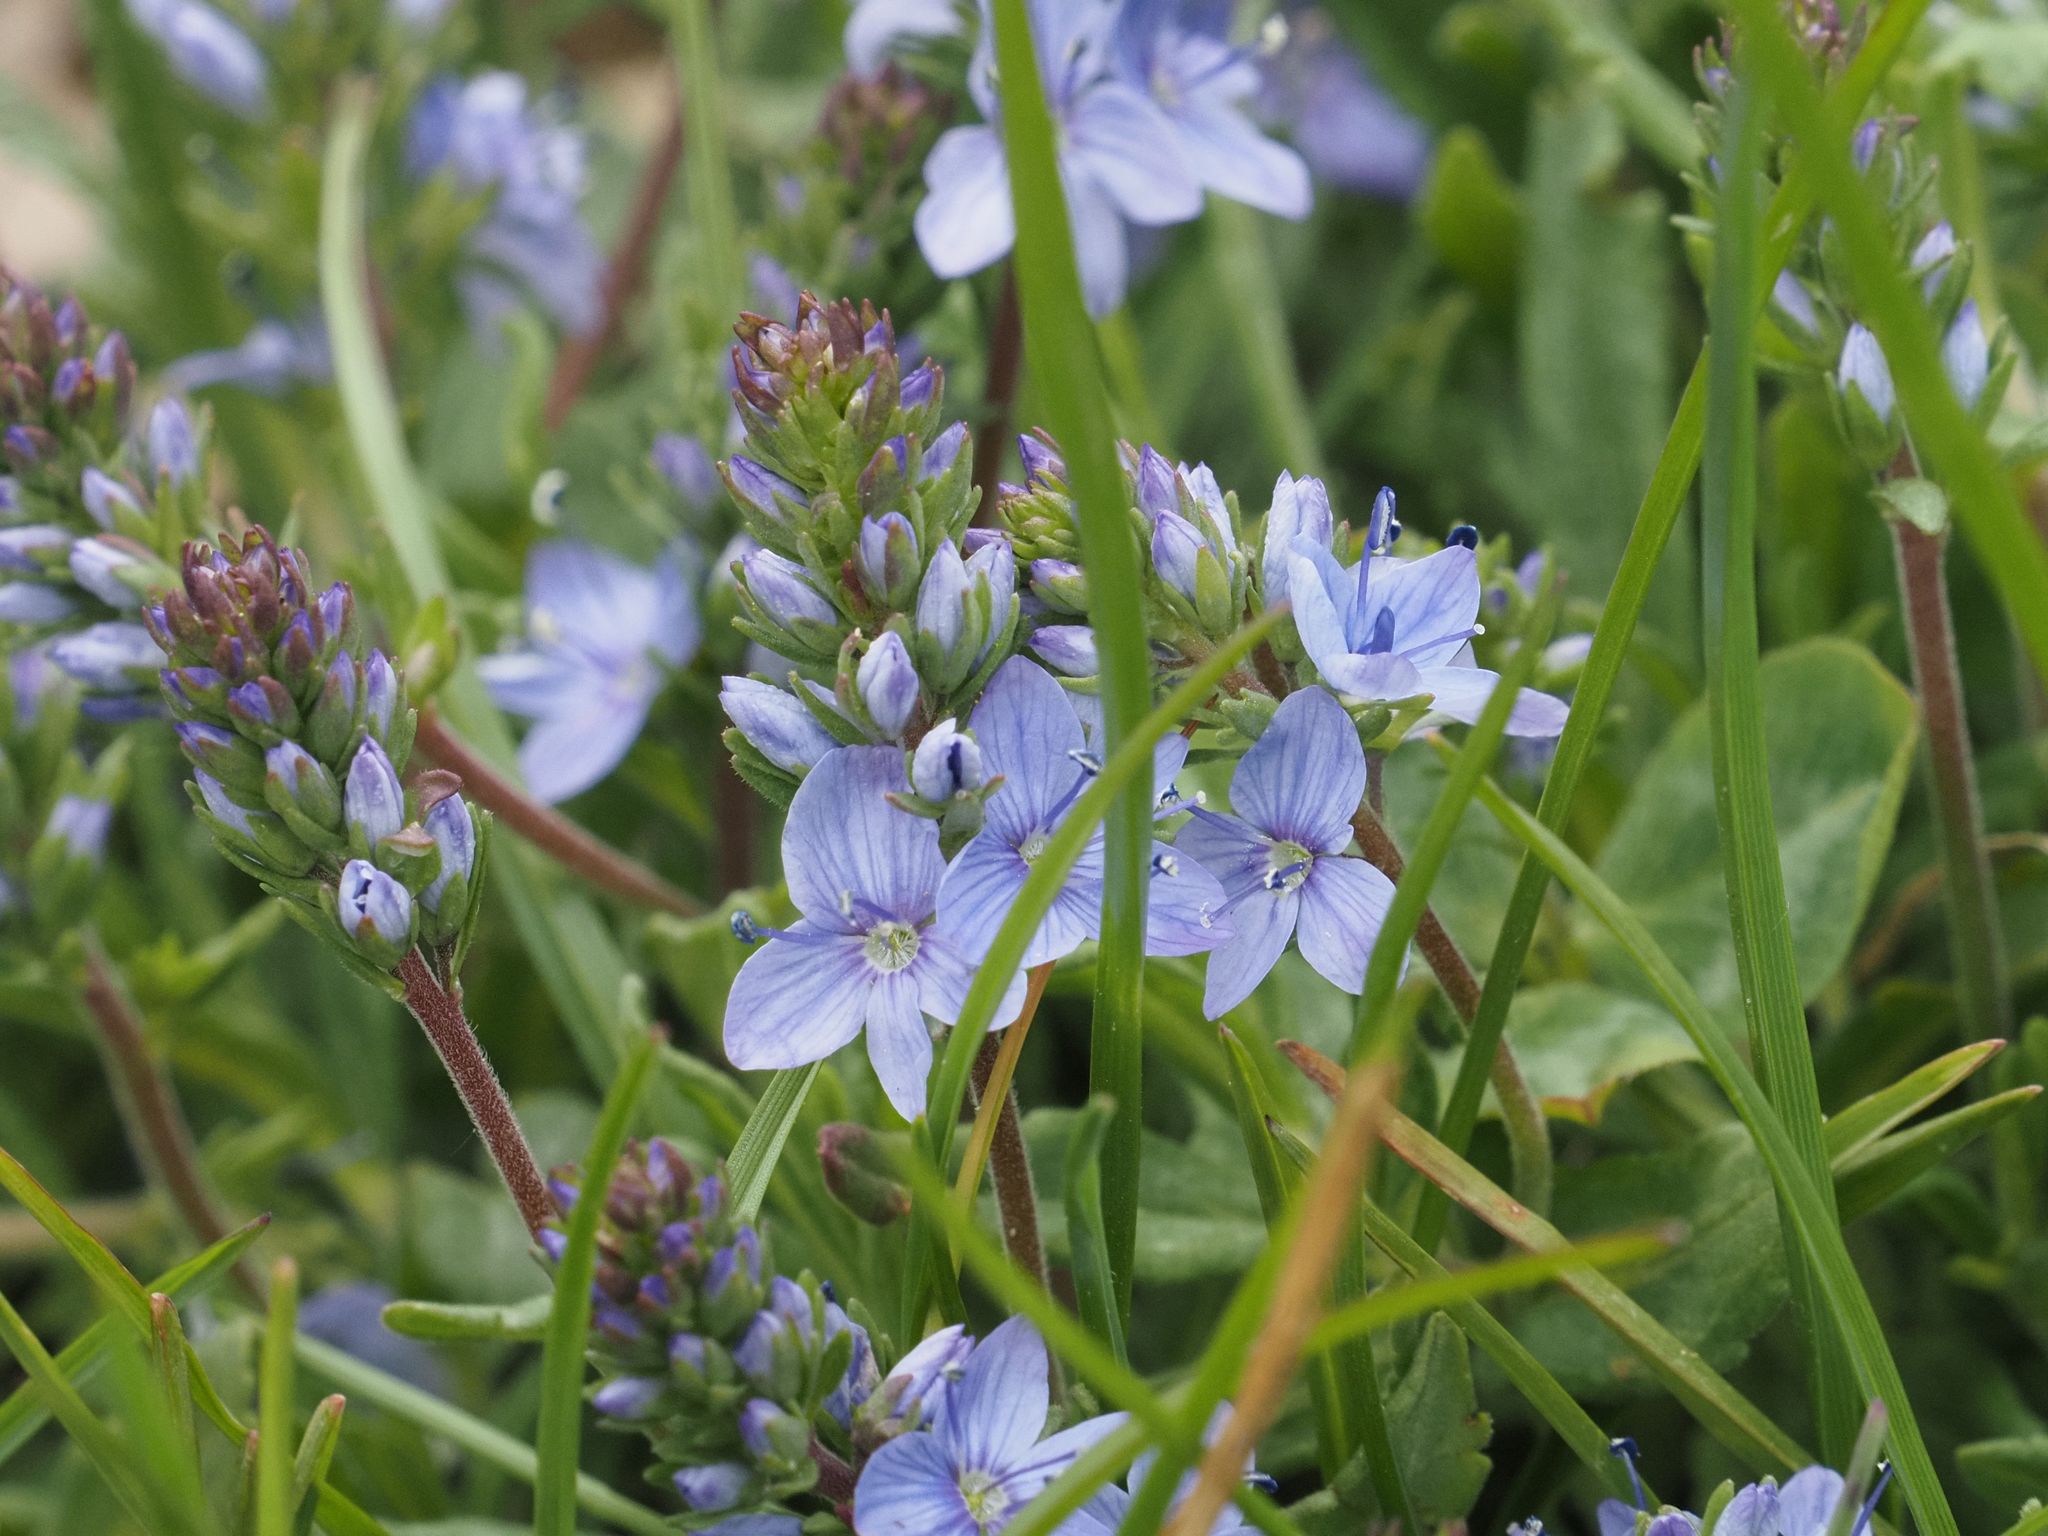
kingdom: Plantae
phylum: Tracheophyta
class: Magnoliopsida
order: Lamiales
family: Plantaginaceae
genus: Veronica
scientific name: Veronica prostrata
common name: Prostrate speedwell
